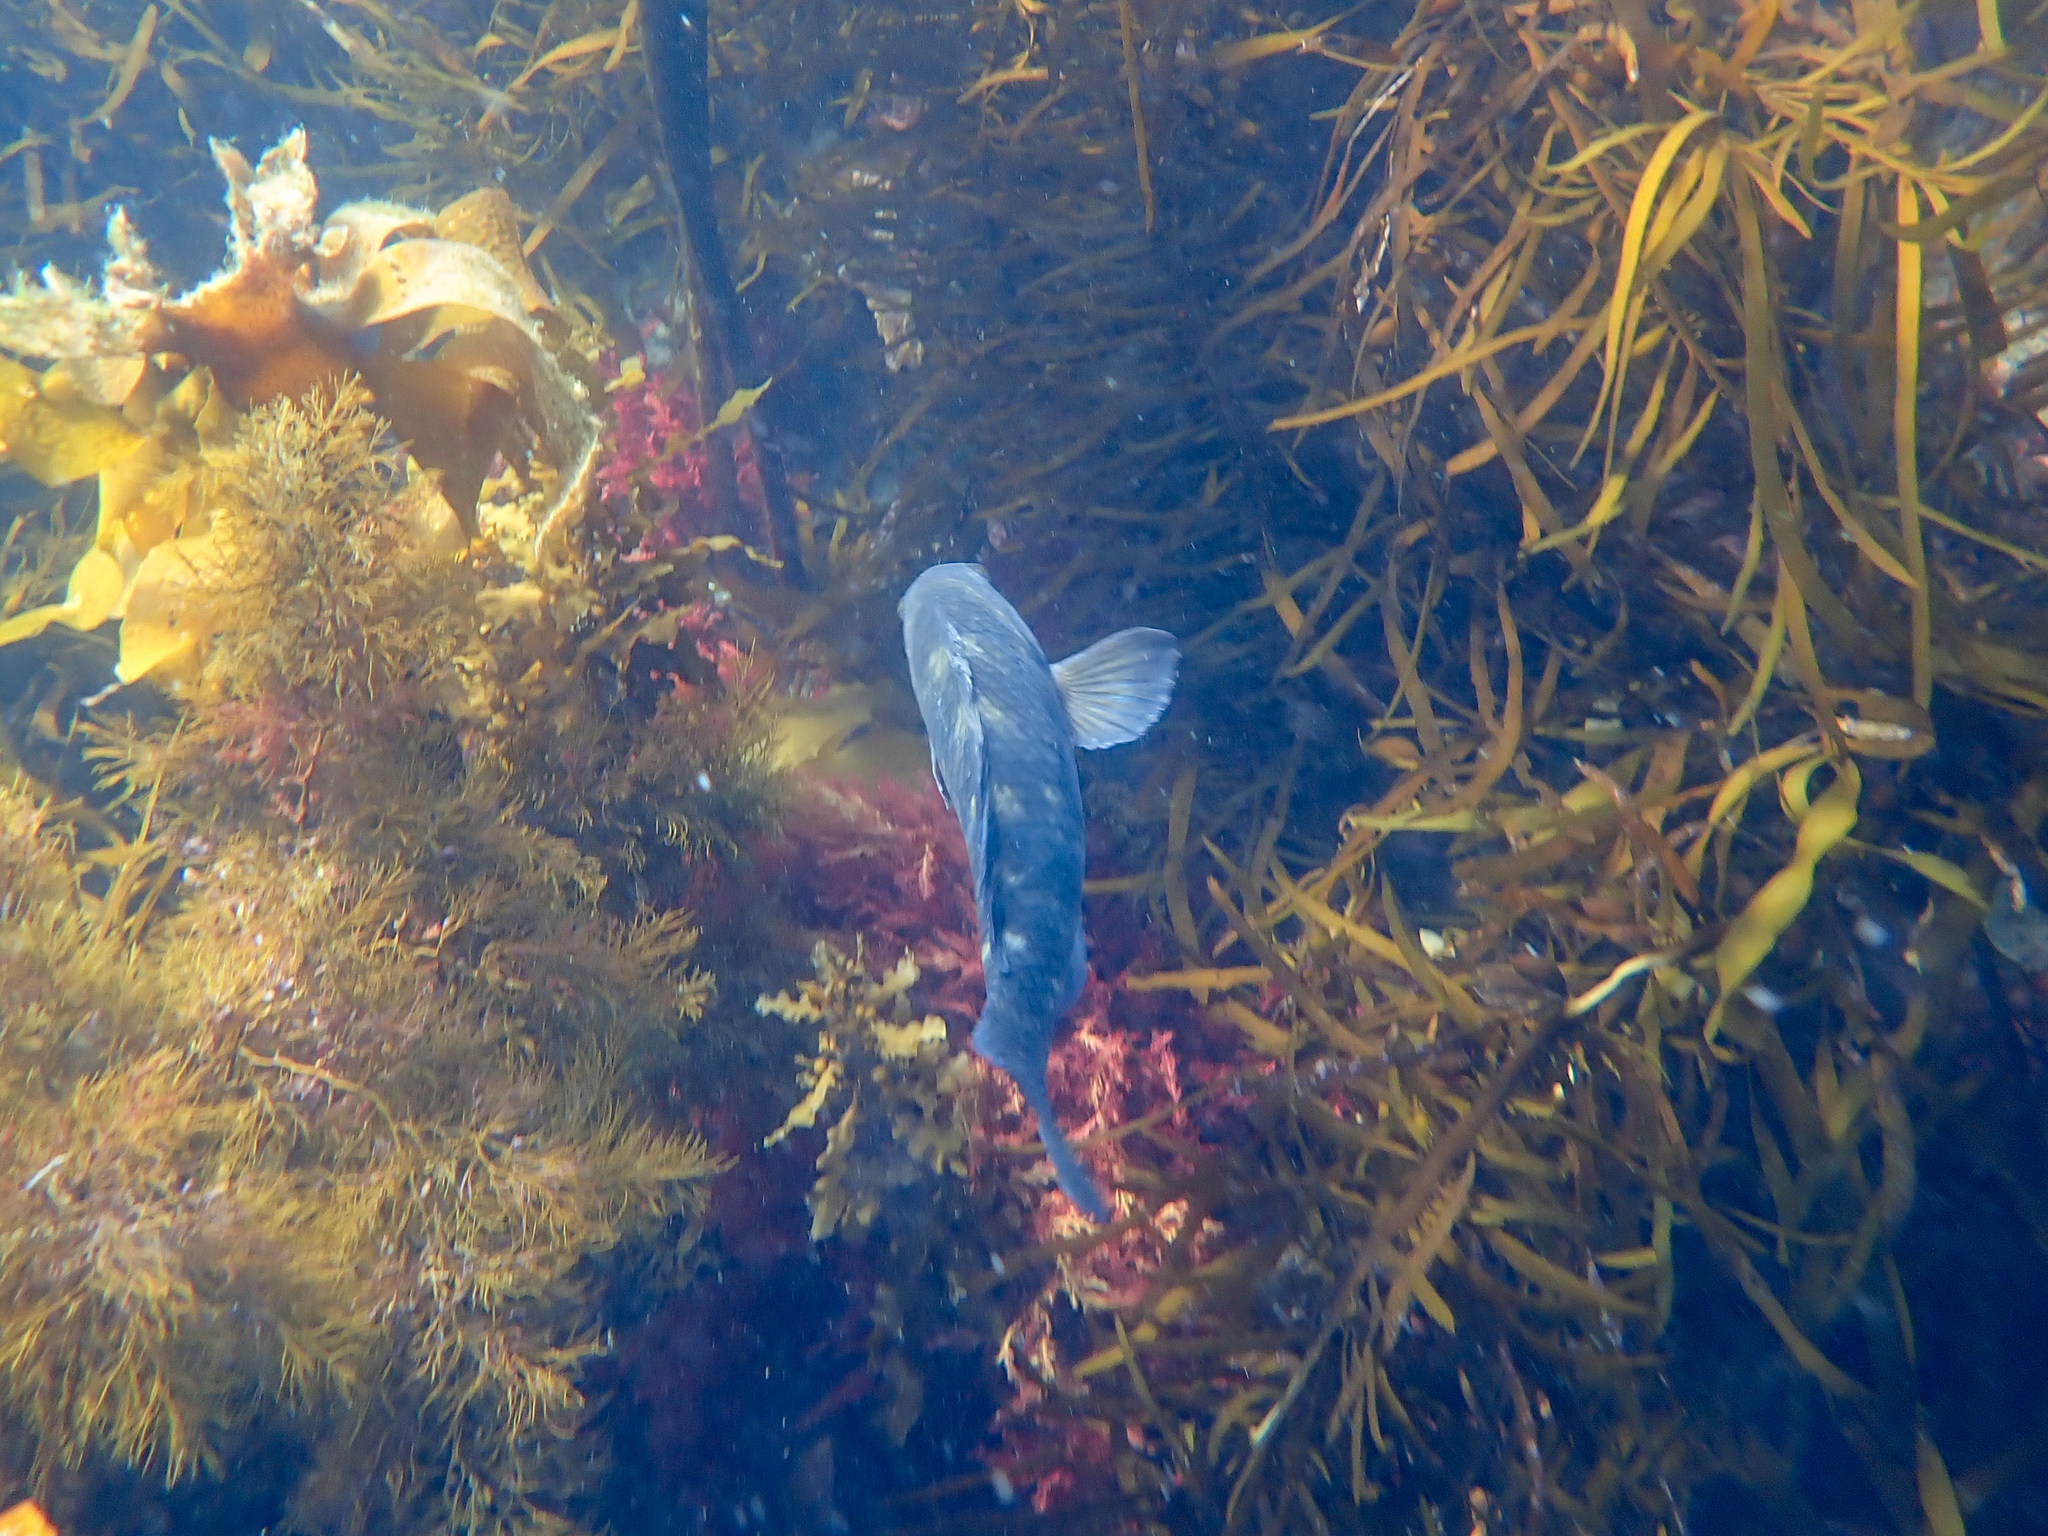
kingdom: Animalia
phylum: Chordata
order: Perciformes
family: Labridae
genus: Notolabrus
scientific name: Notolabrus fucicola
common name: Banded parrotfish
